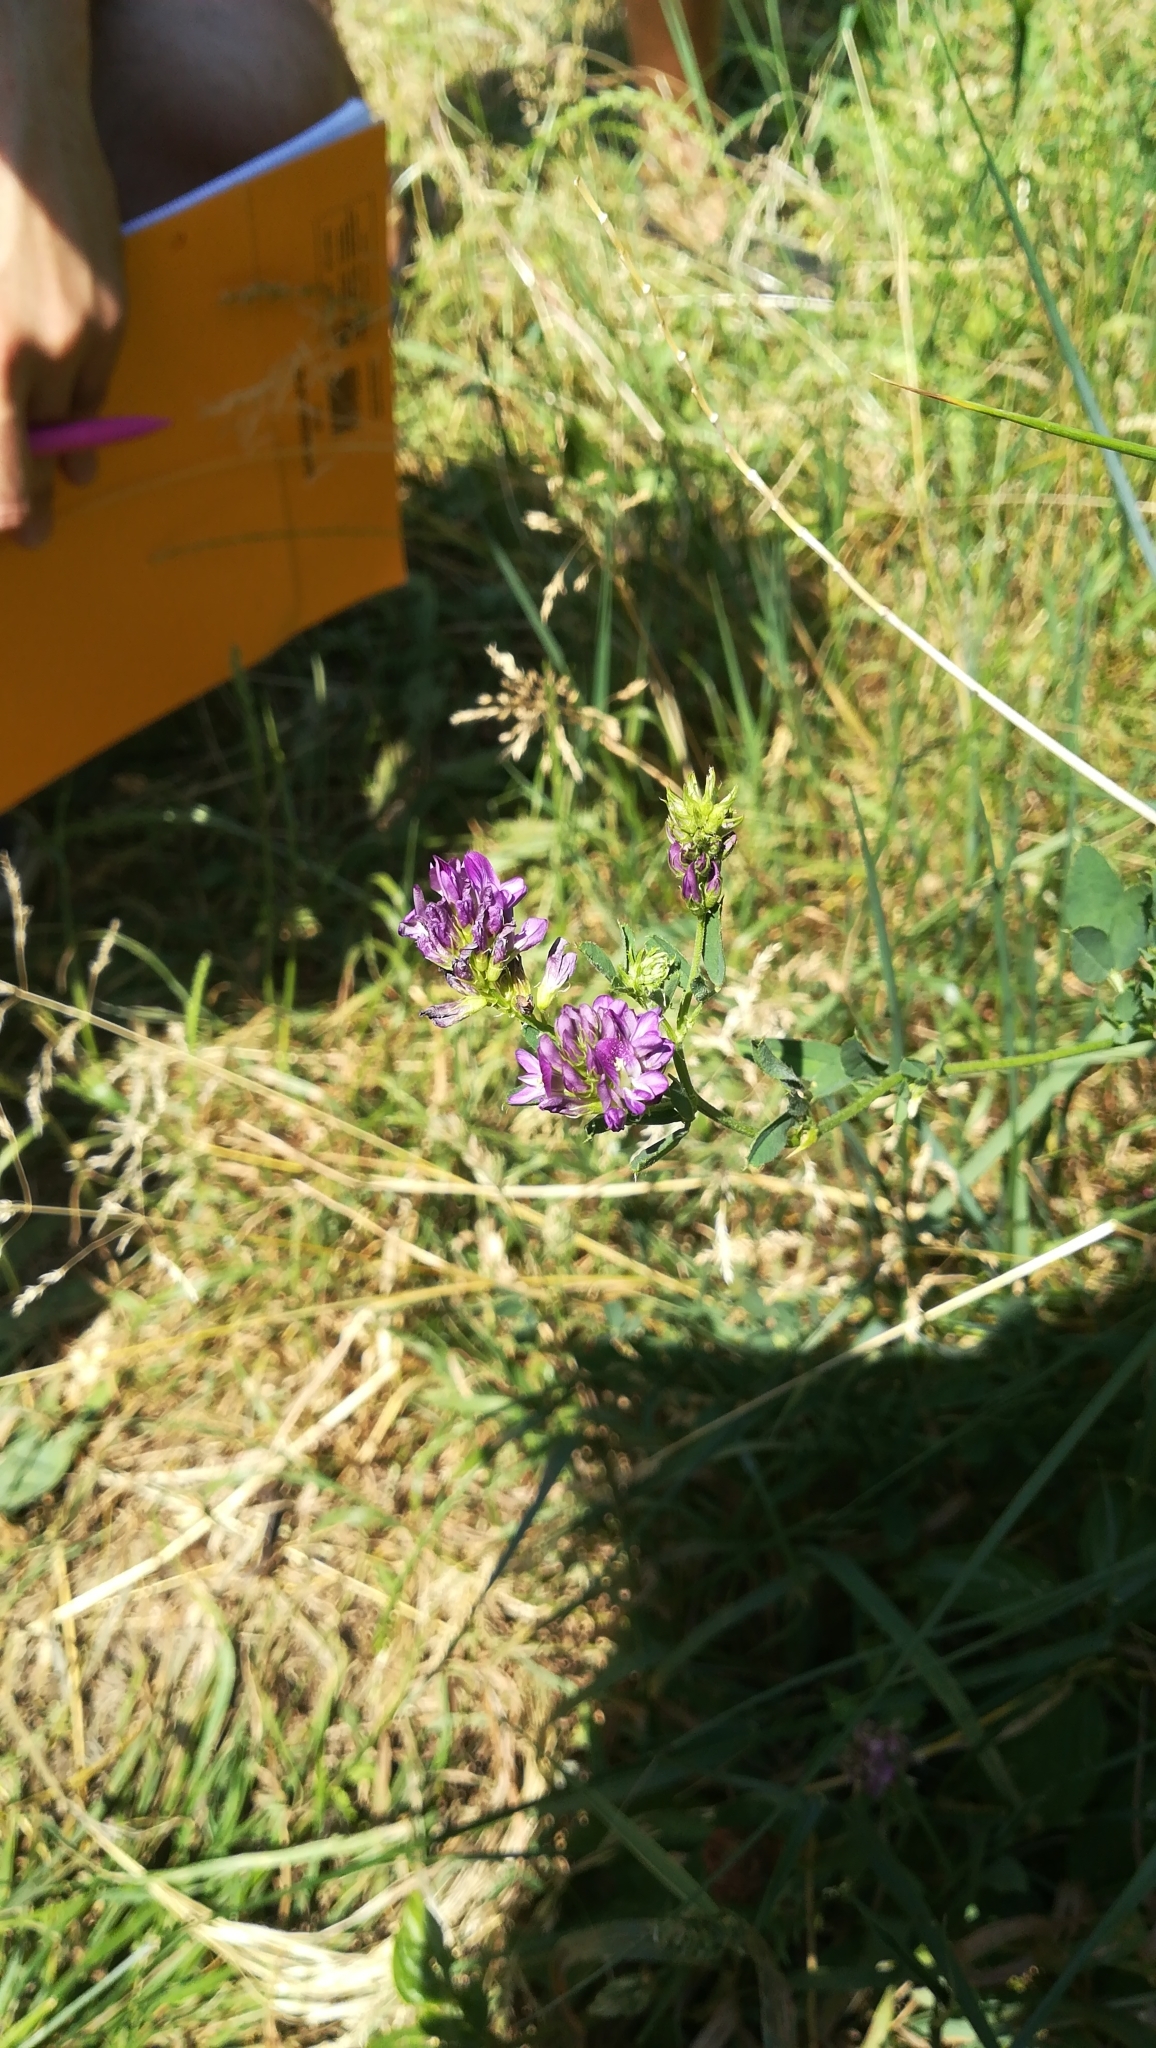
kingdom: Plantae
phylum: Tracheophyta
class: Magnoliopsida
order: Fabales
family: Fabaceae
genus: Medicago
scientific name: Medicago sativa
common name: Alfalfa
